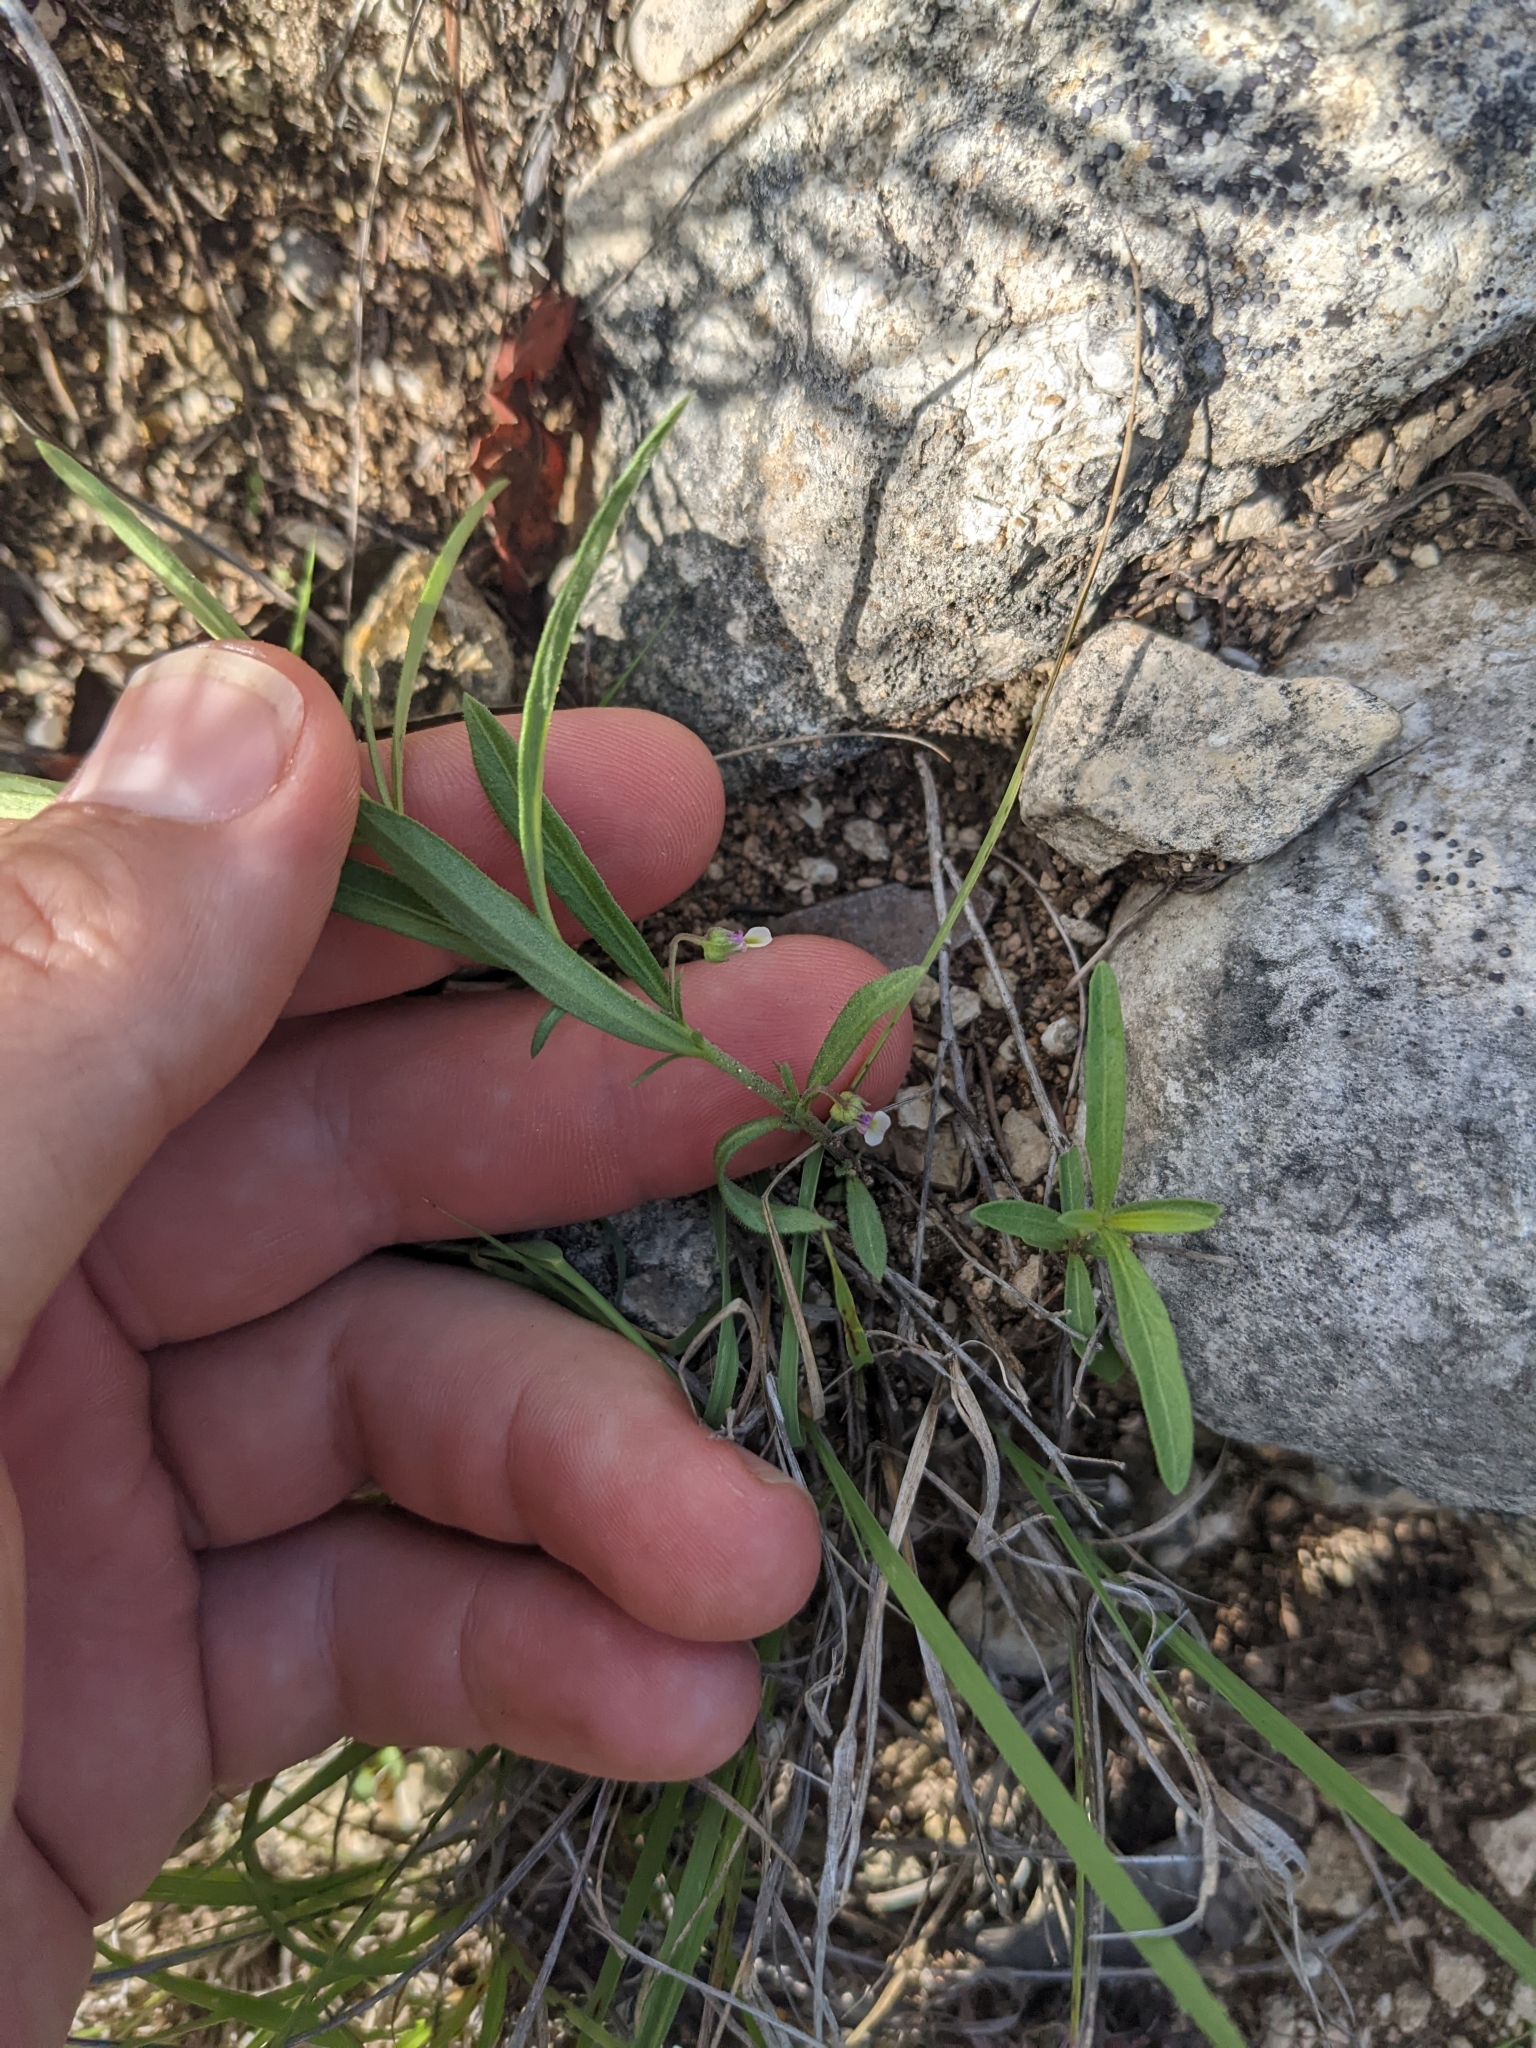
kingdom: Plantae
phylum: Tracheophyta
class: Magnoliopsida
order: Malpighiales
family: Violaceae
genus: Pombalia
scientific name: Pombalia verticillata
